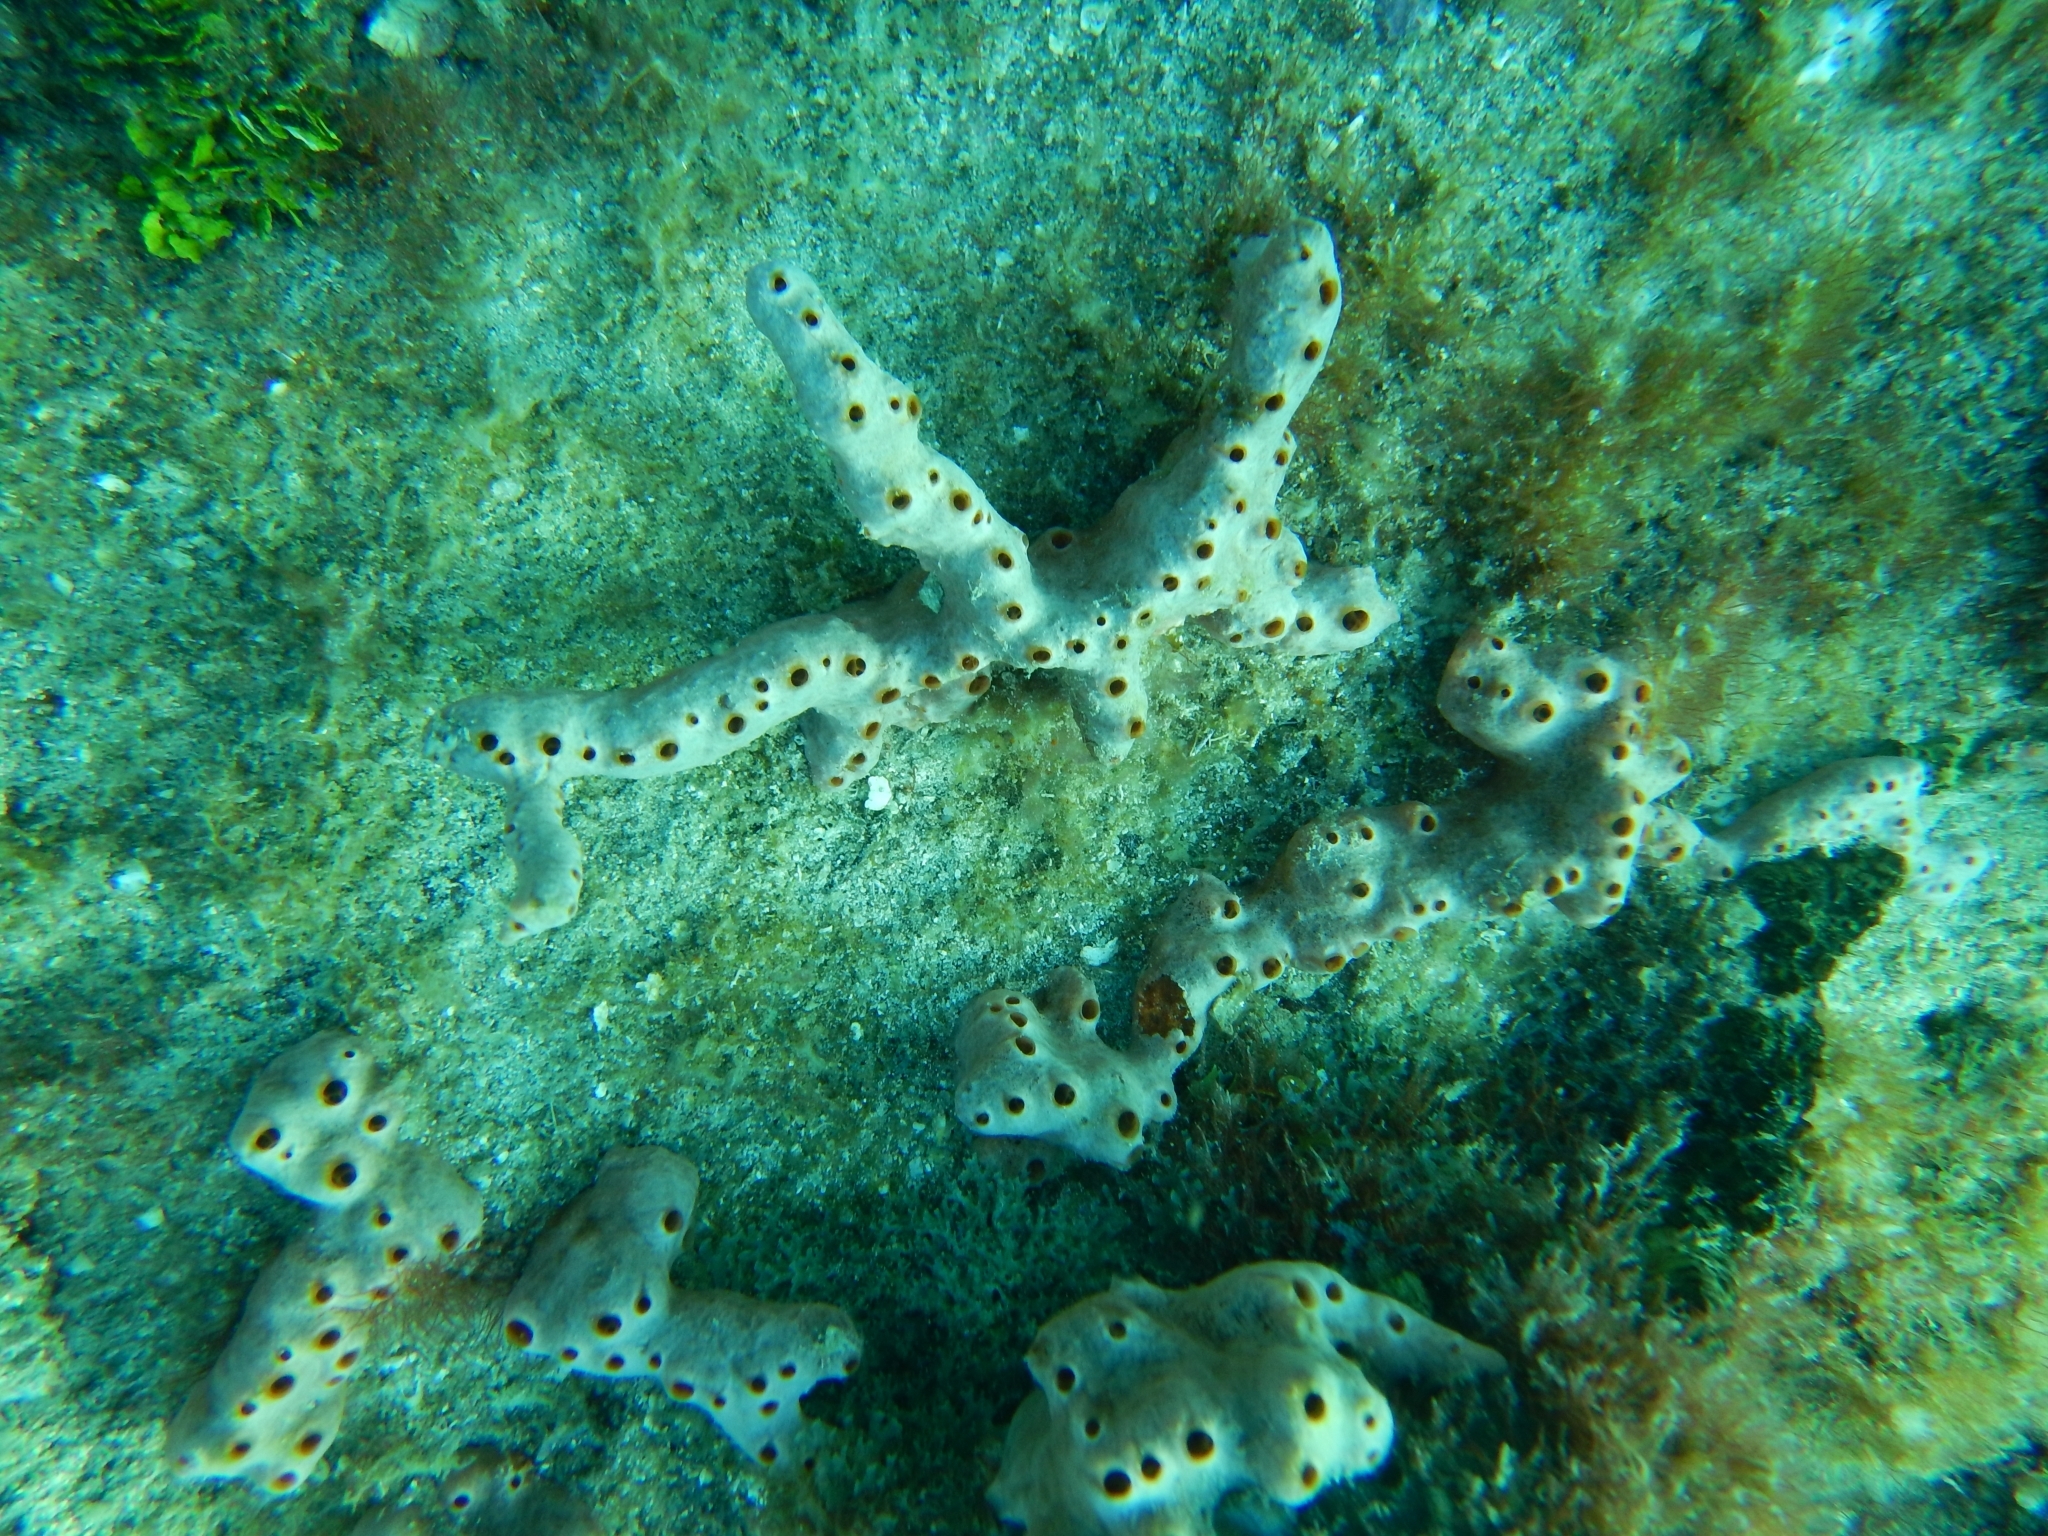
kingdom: Animalia
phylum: Porifera
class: Demospongiae
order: Poecilosclerida
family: Desmacididae
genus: Desmapsamma
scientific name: Desmapsamma anchorata
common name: Lumpy overgrowing sponge
